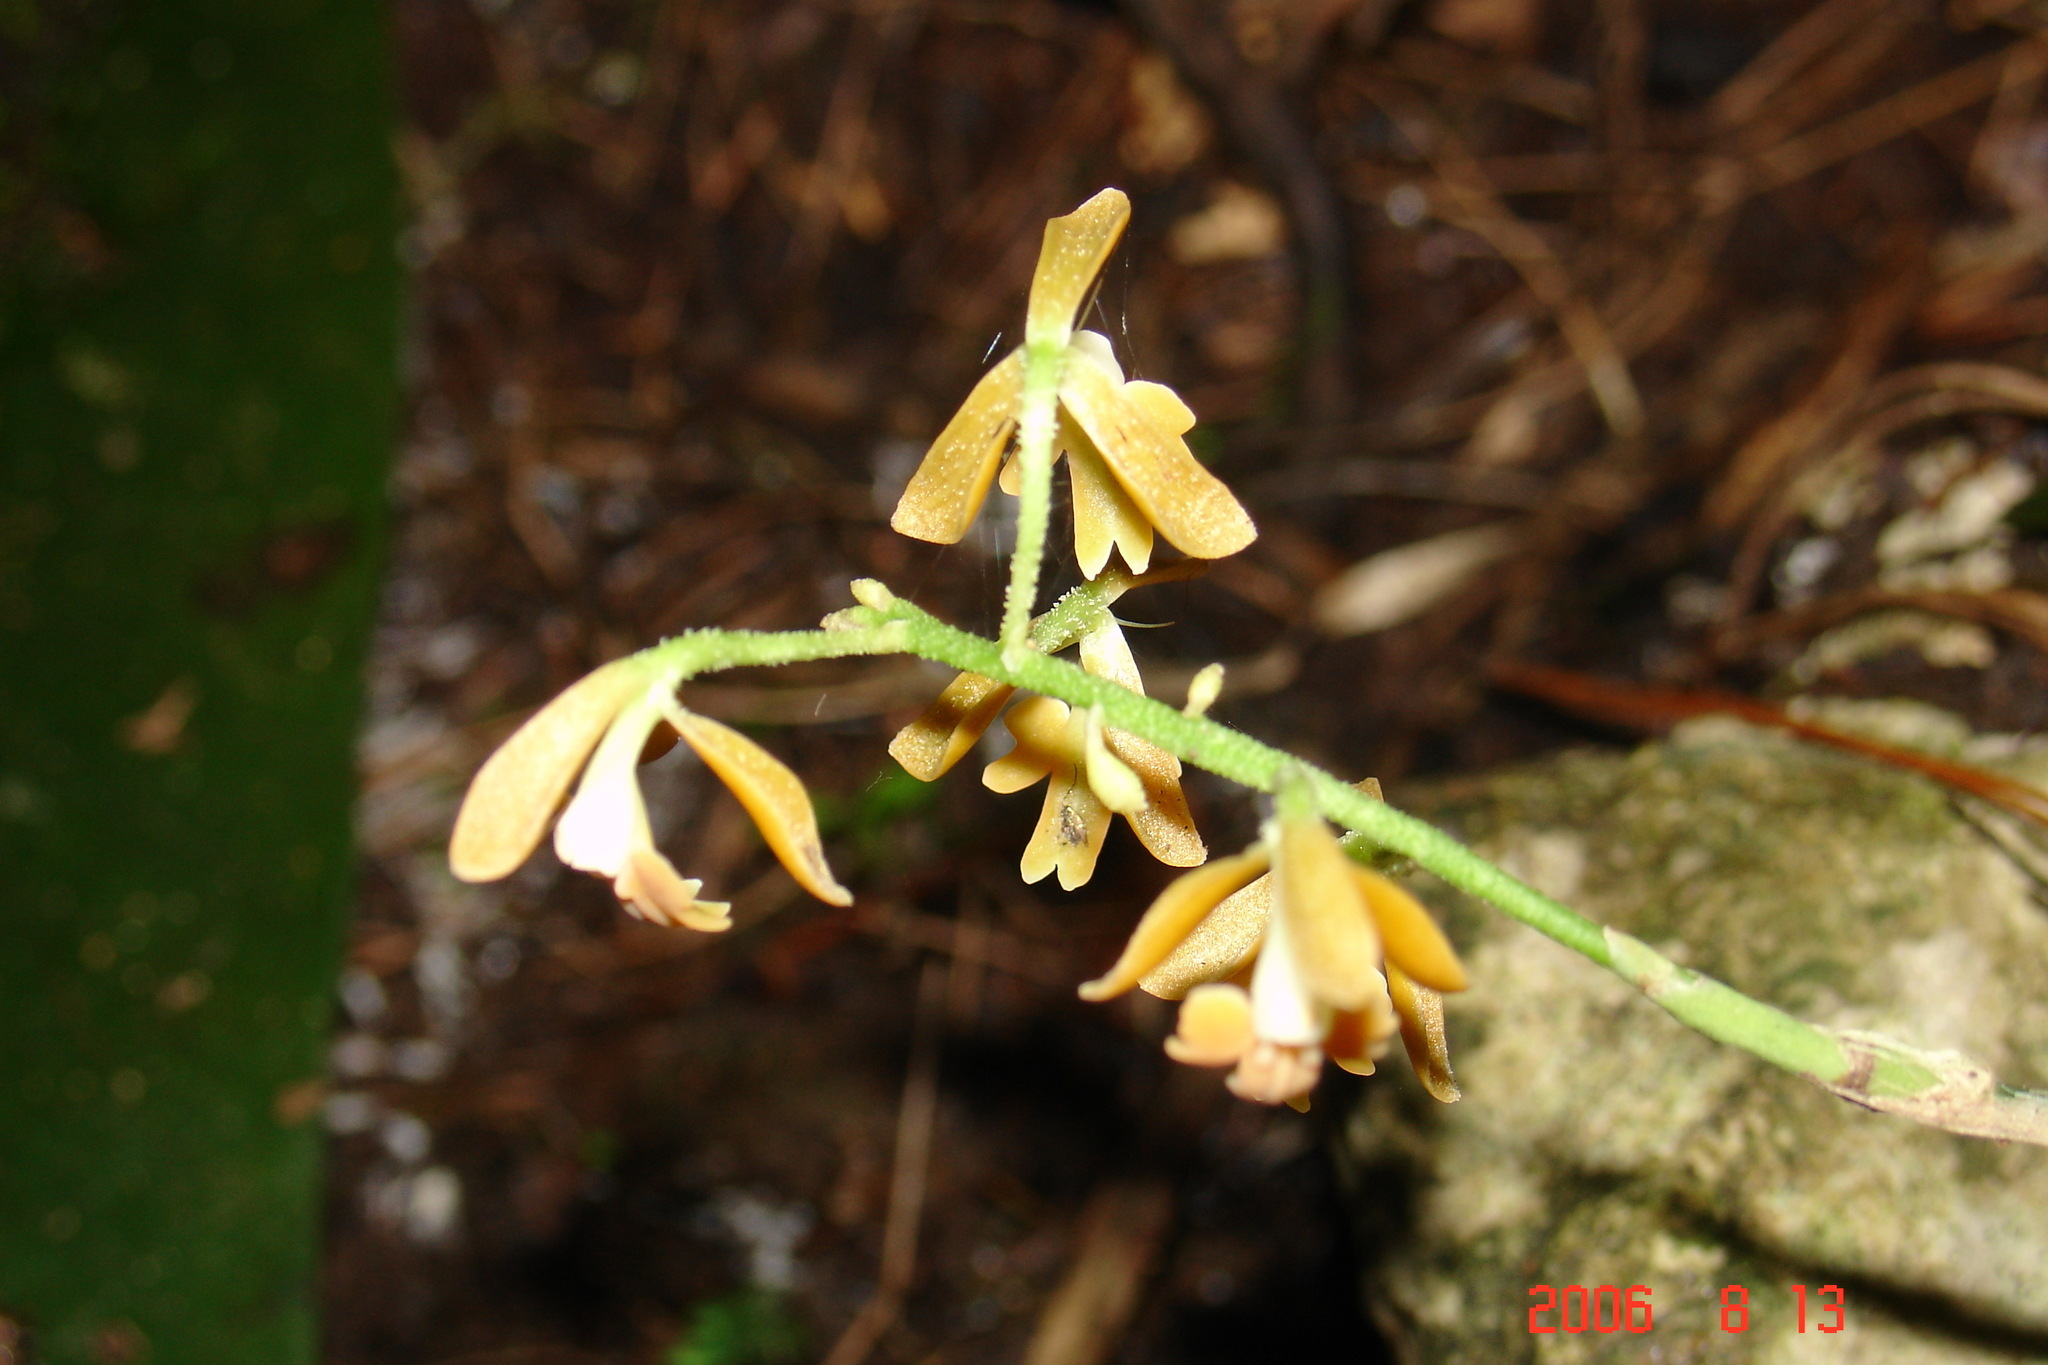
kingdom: Plantae
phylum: Tracheophyta
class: Liliopsida
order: Asparagales
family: Orchidaceae
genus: Epidendrum
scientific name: Epidendrum polyanthum
